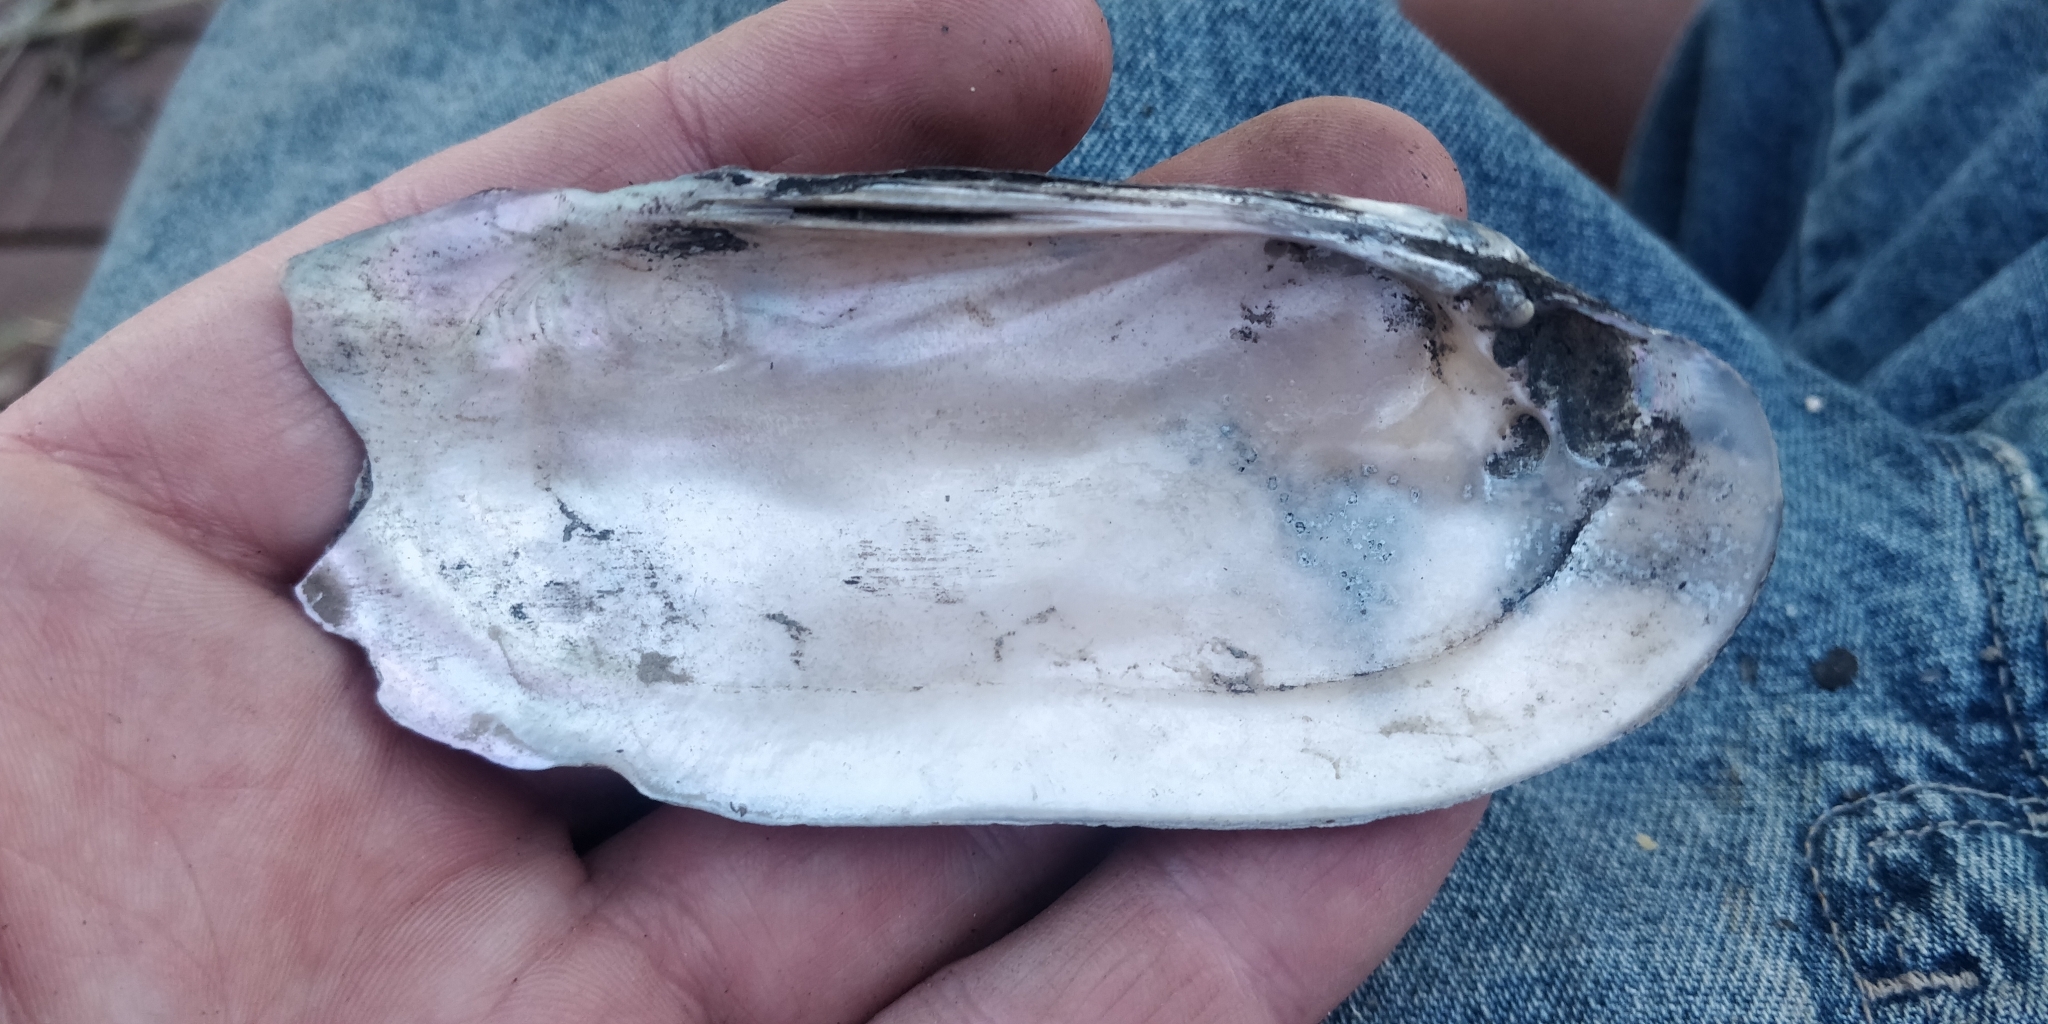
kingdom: Animalia
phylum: Mollusca
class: Bivalvia
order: Unionida
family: Unionidae
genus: Ligumia
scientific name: Ligumia recta
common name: Black sandshell
